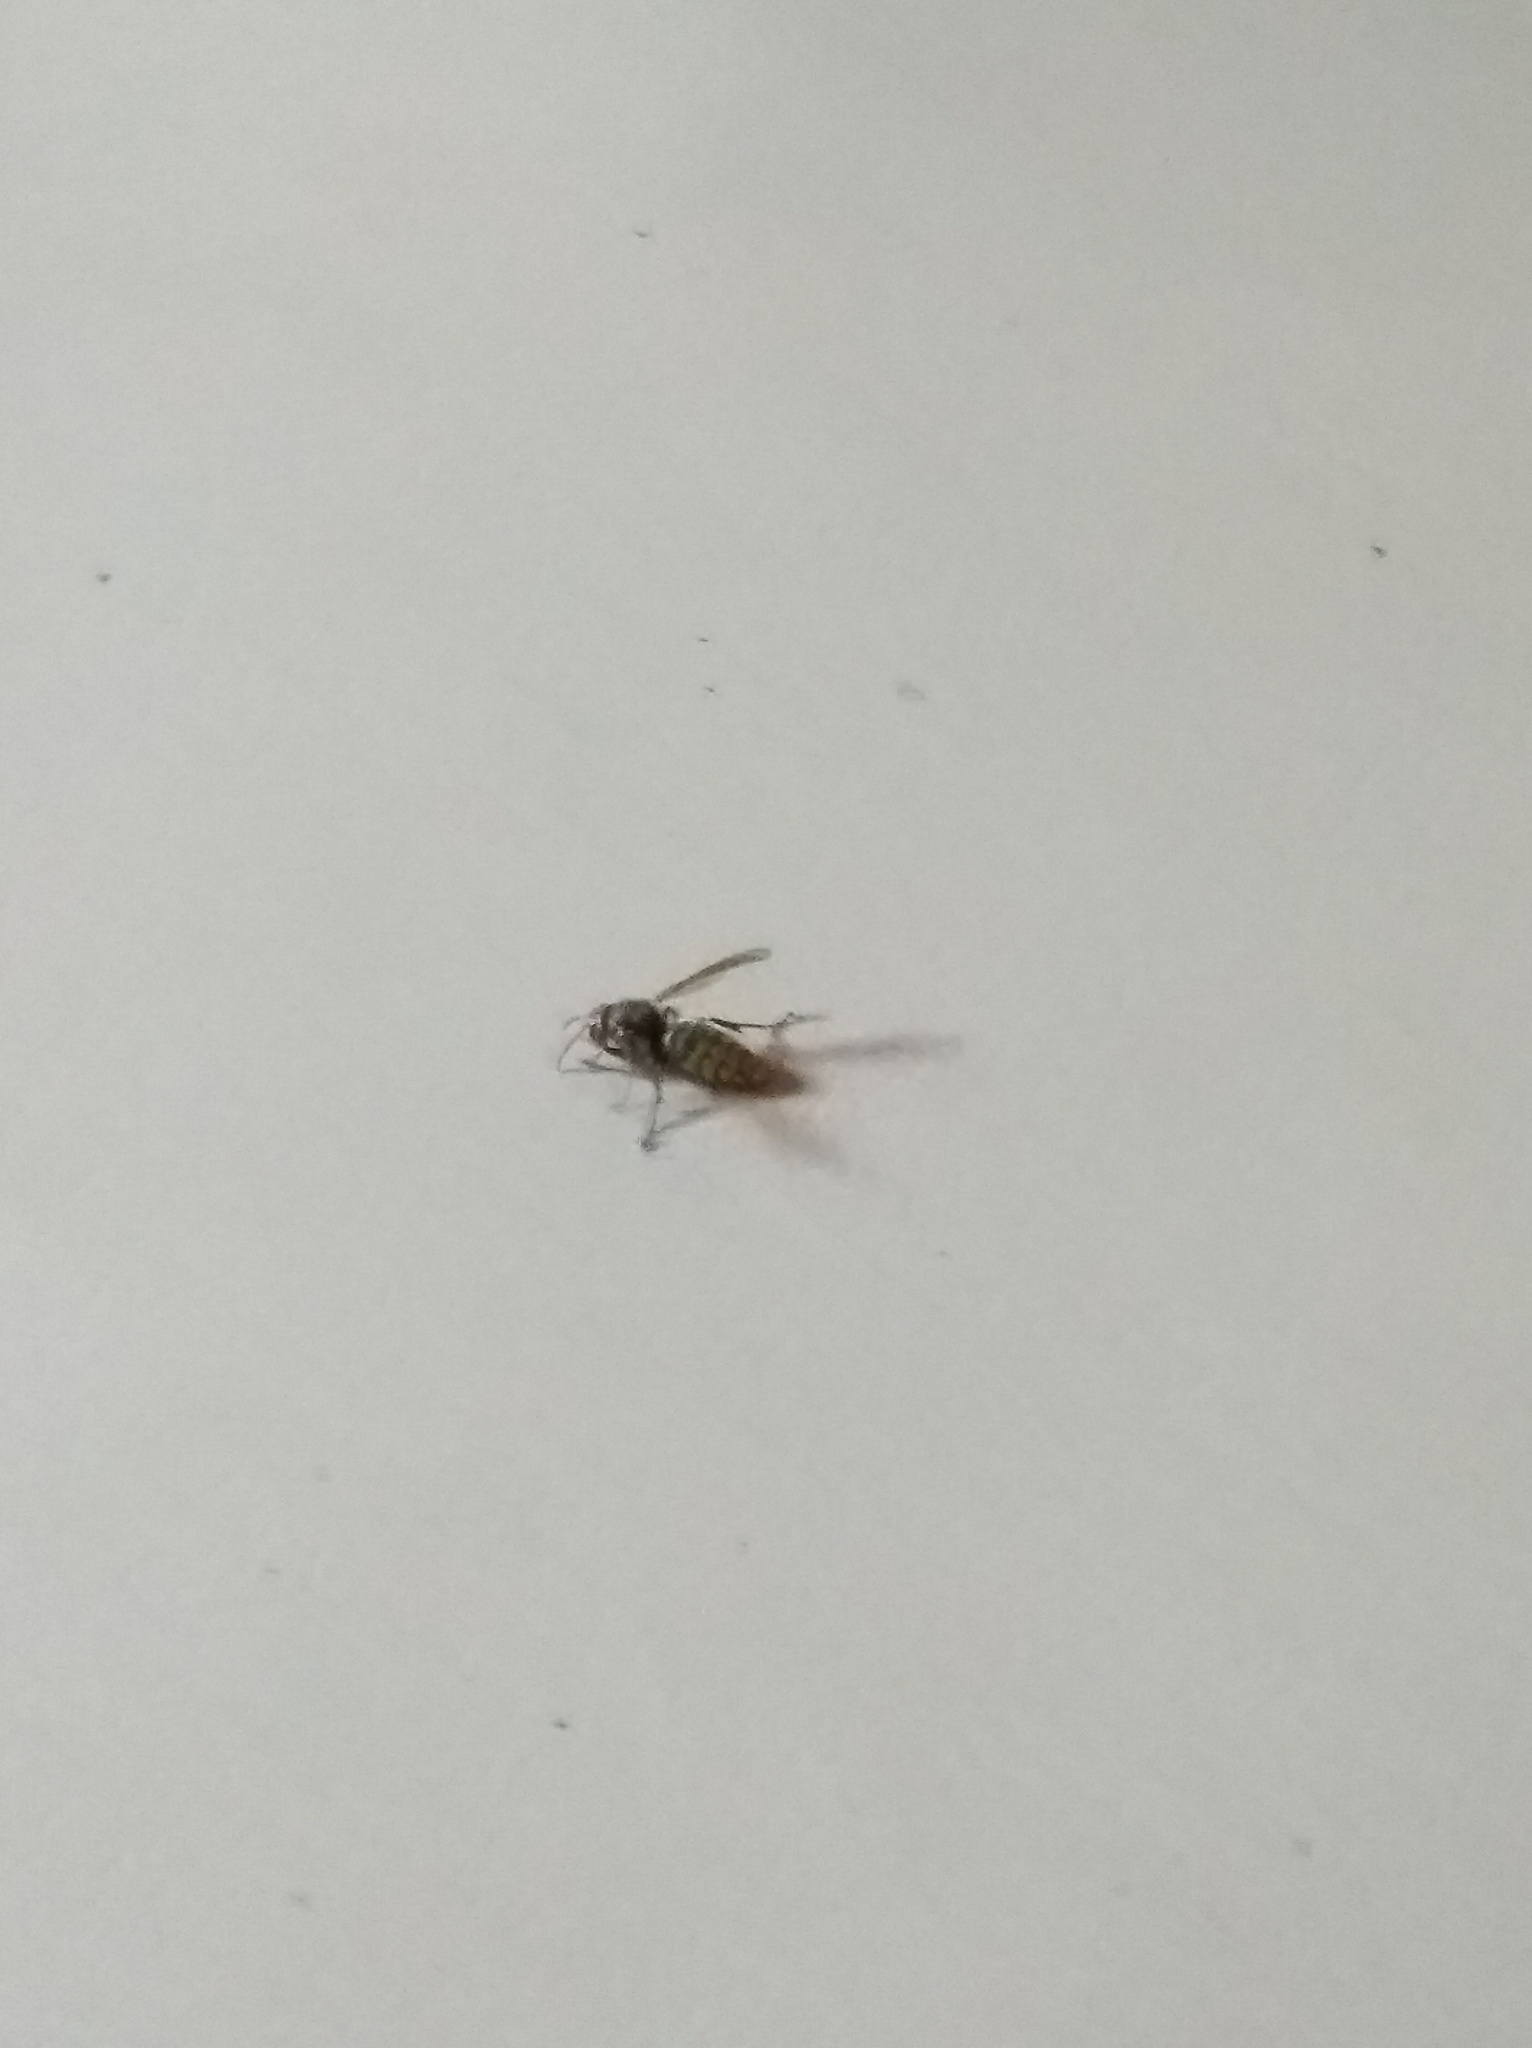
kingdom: Animalia
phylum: Arthropoda
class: Insecta
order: Hymenoptera
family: Vespidae
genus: Vespa
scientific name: Vespa crabro
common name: Hornet
